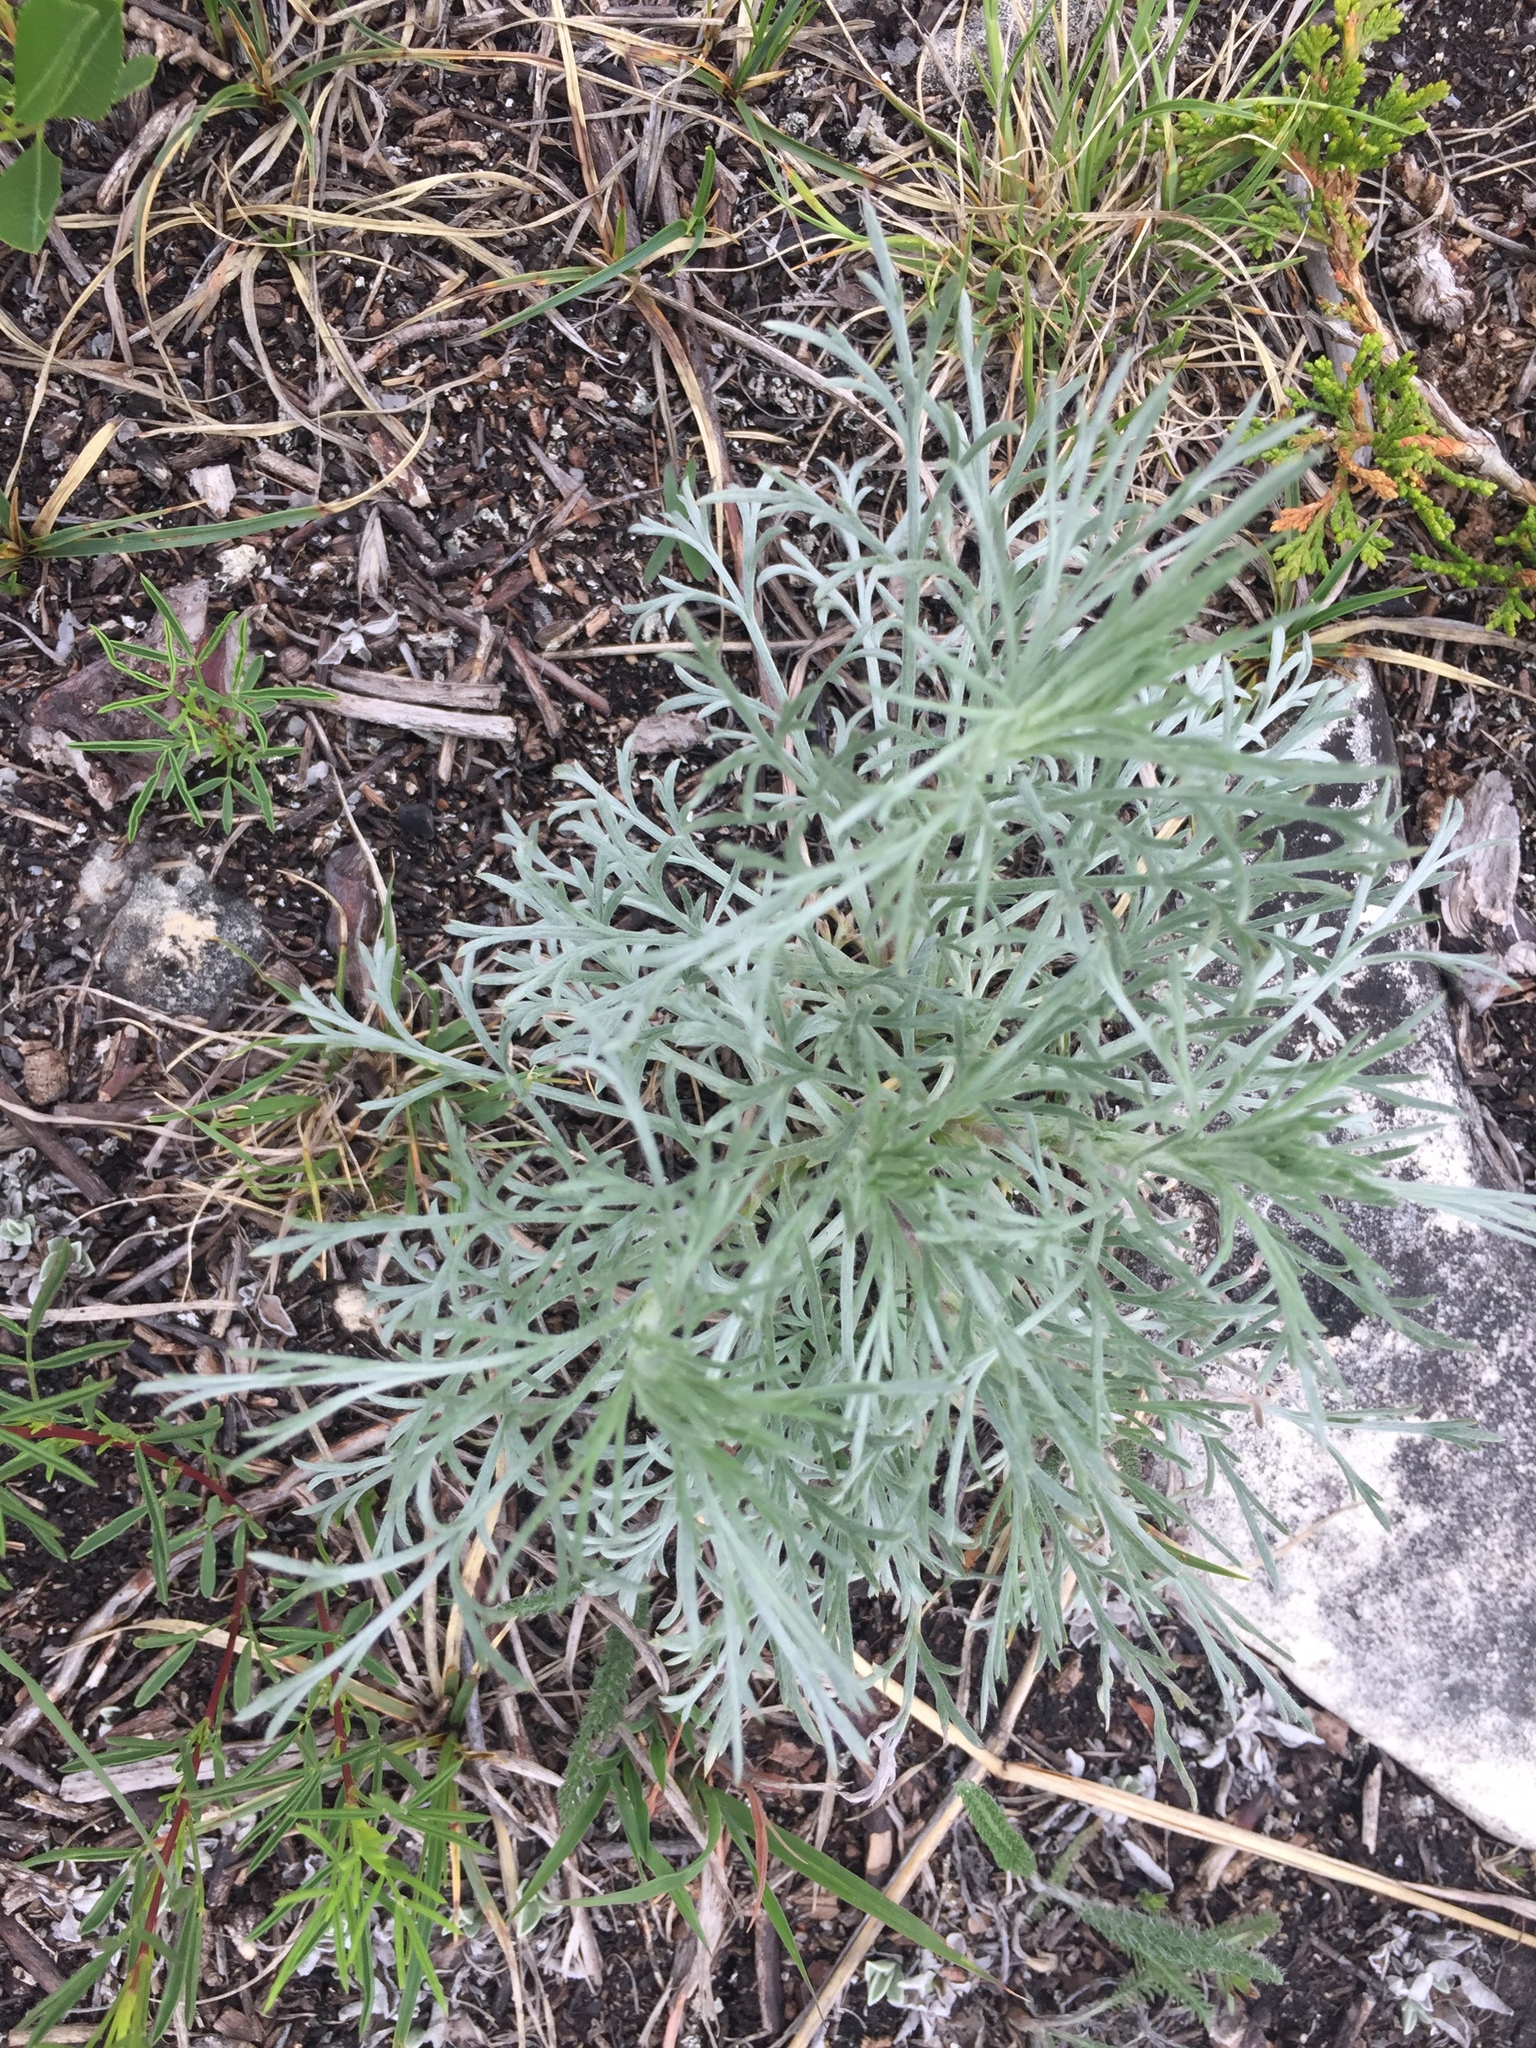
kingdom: Plantae
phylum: Tracheophyta
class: Magnoliopsida
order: Asterales
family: Asteraceae
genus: Artemisia
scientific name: Artemisia frigida
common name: Prairie sagewort
